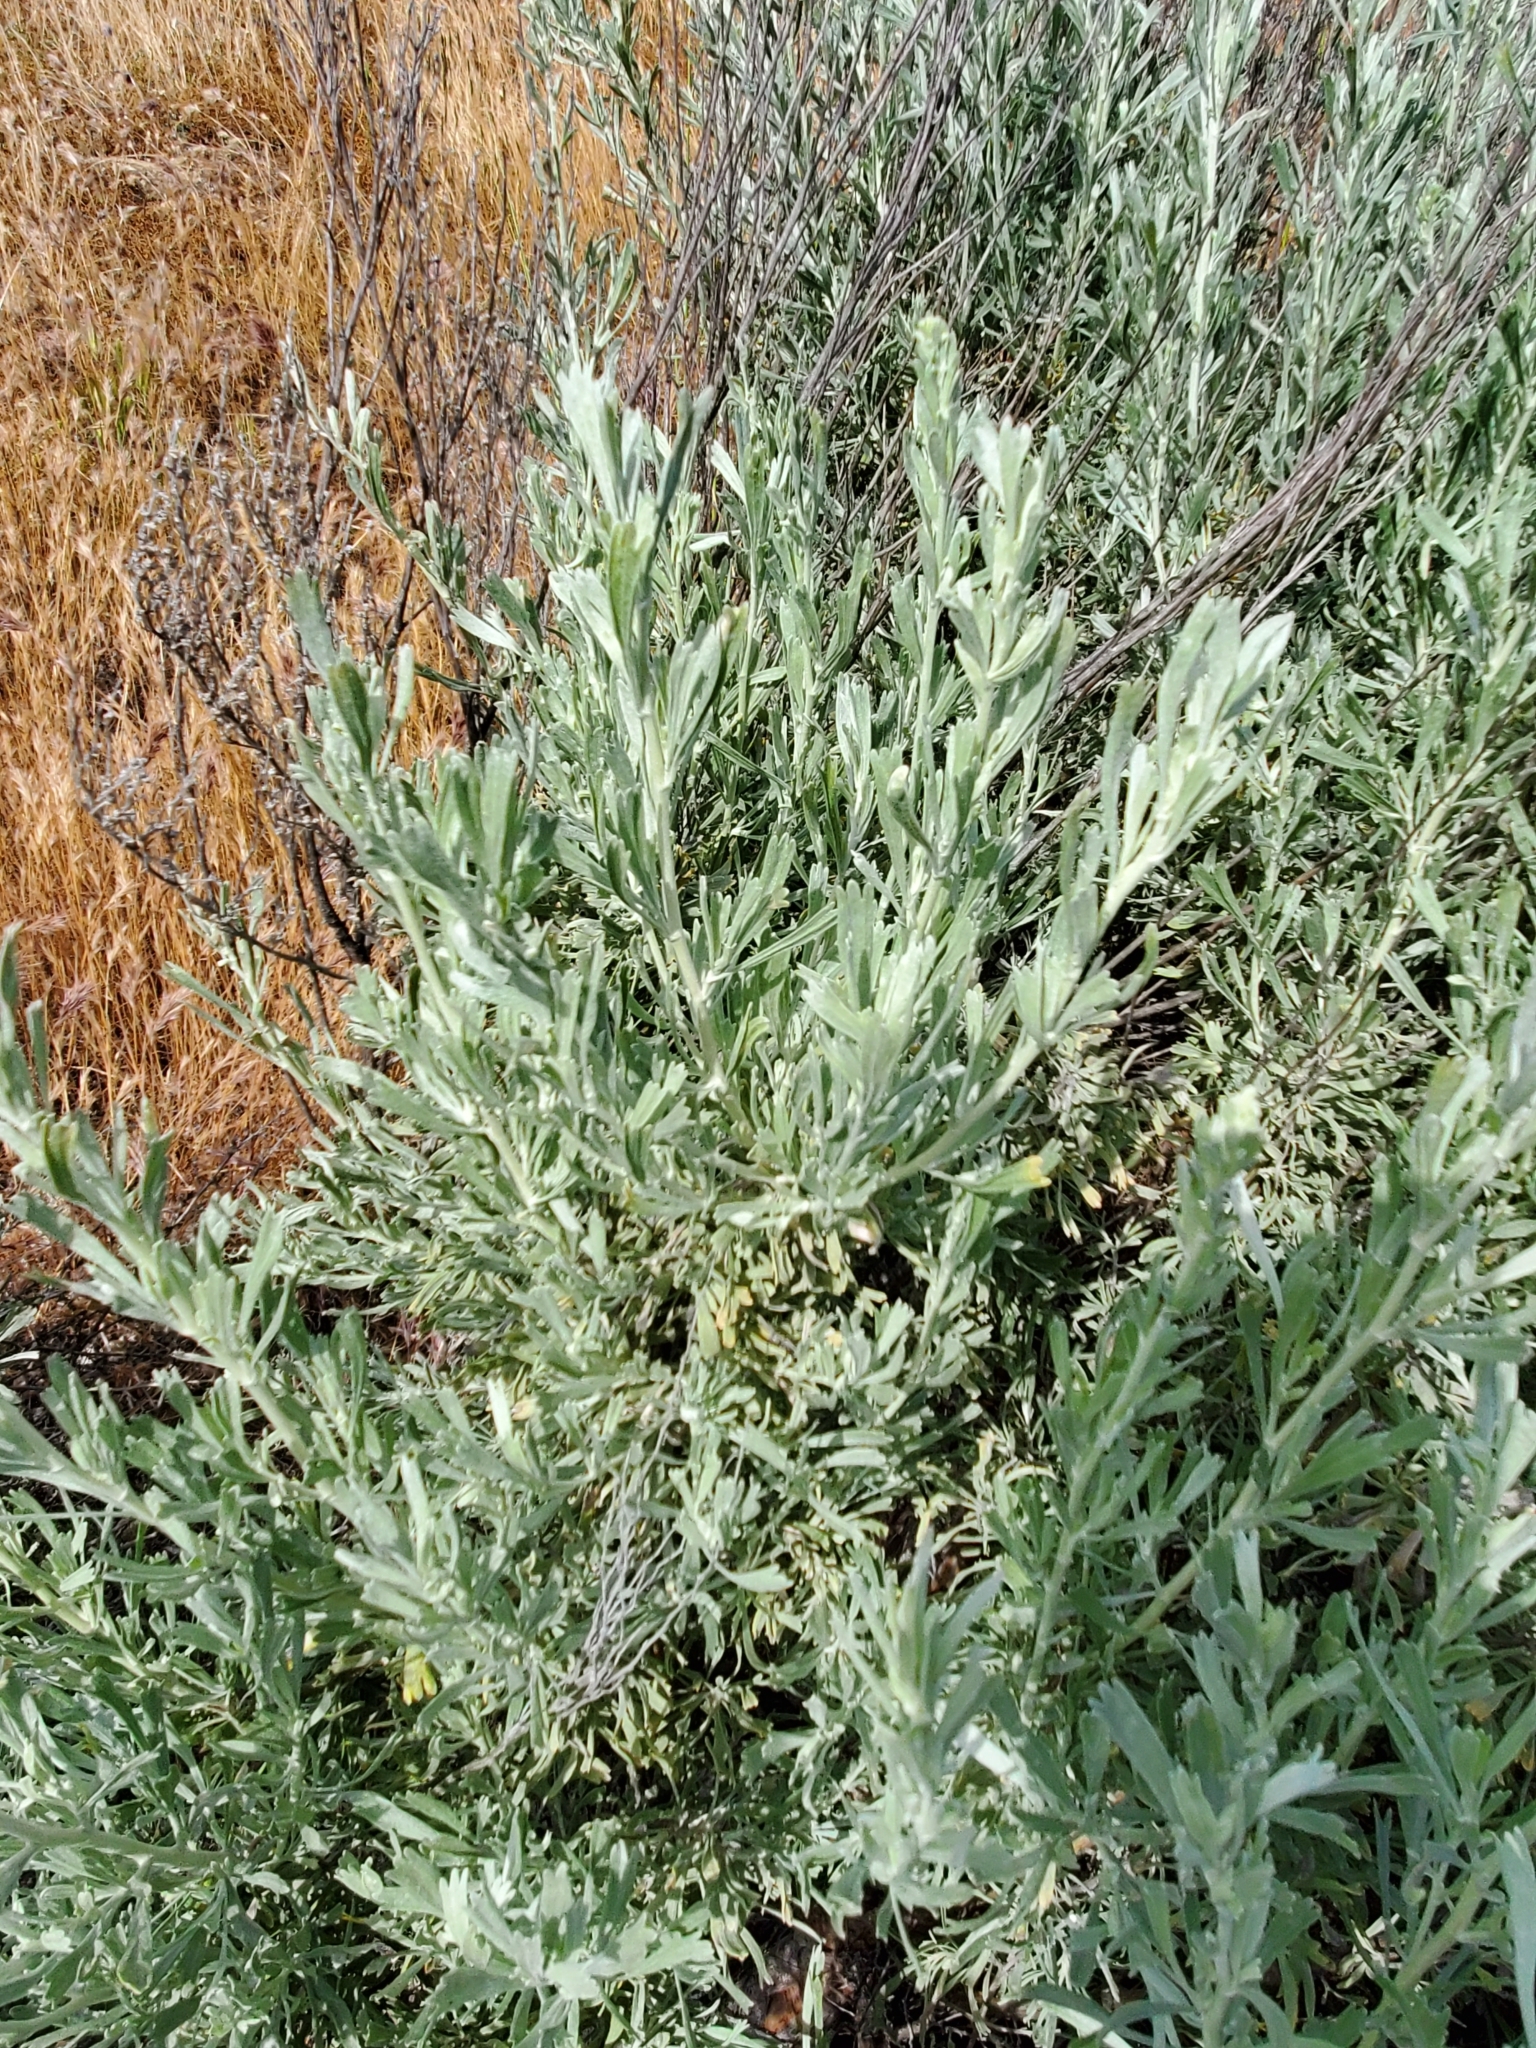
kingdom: Plantae
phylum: Tracheophyta
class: Magnoliopsida
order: Asterales
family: Asteraceae
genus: Artemisia
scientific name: Artemisia tridentata
